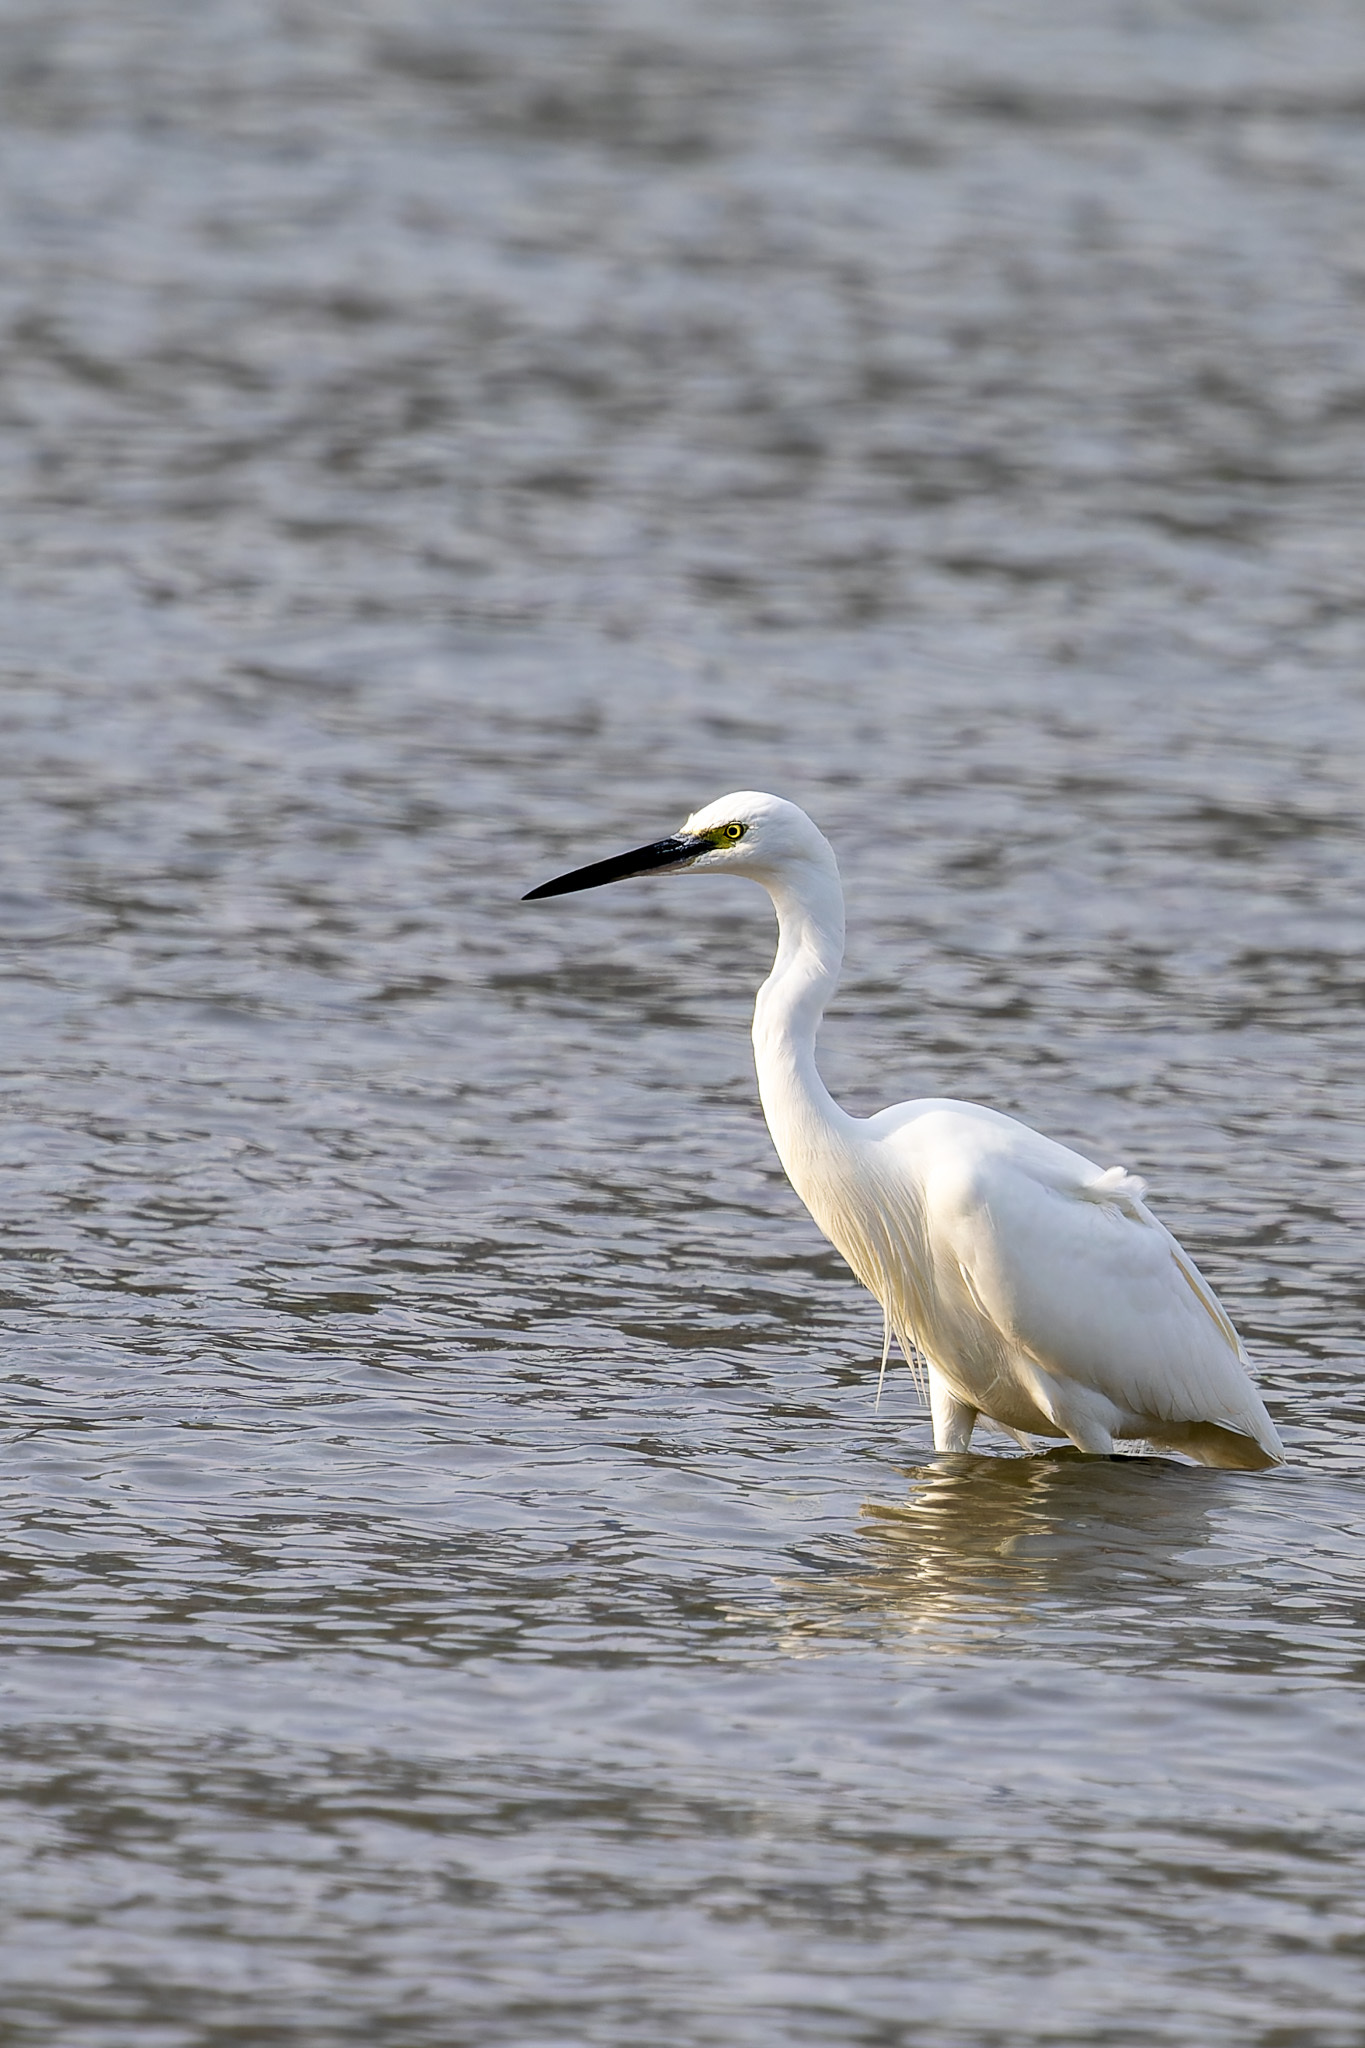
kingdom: Animalia
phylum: Chordata
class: Aves
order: Pelecaniformes
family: Ardeidae
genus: Egretta
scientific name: Egretta garzetta
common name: Little egret
